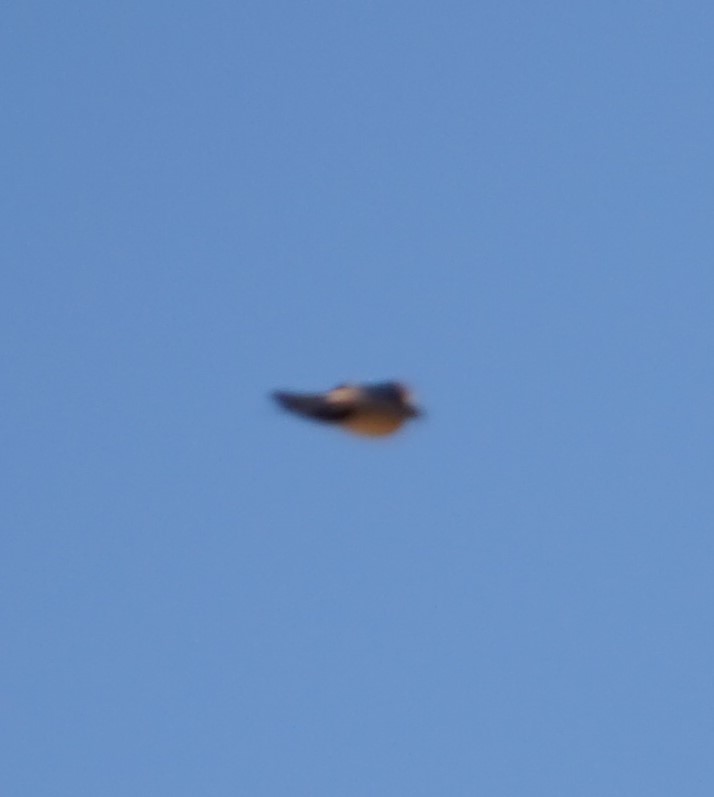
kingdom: Animalia
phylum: Chordata
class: Aves
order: Passeriformes
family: Hirundinidae
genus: Cecropis
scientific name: Cecropis daurica
